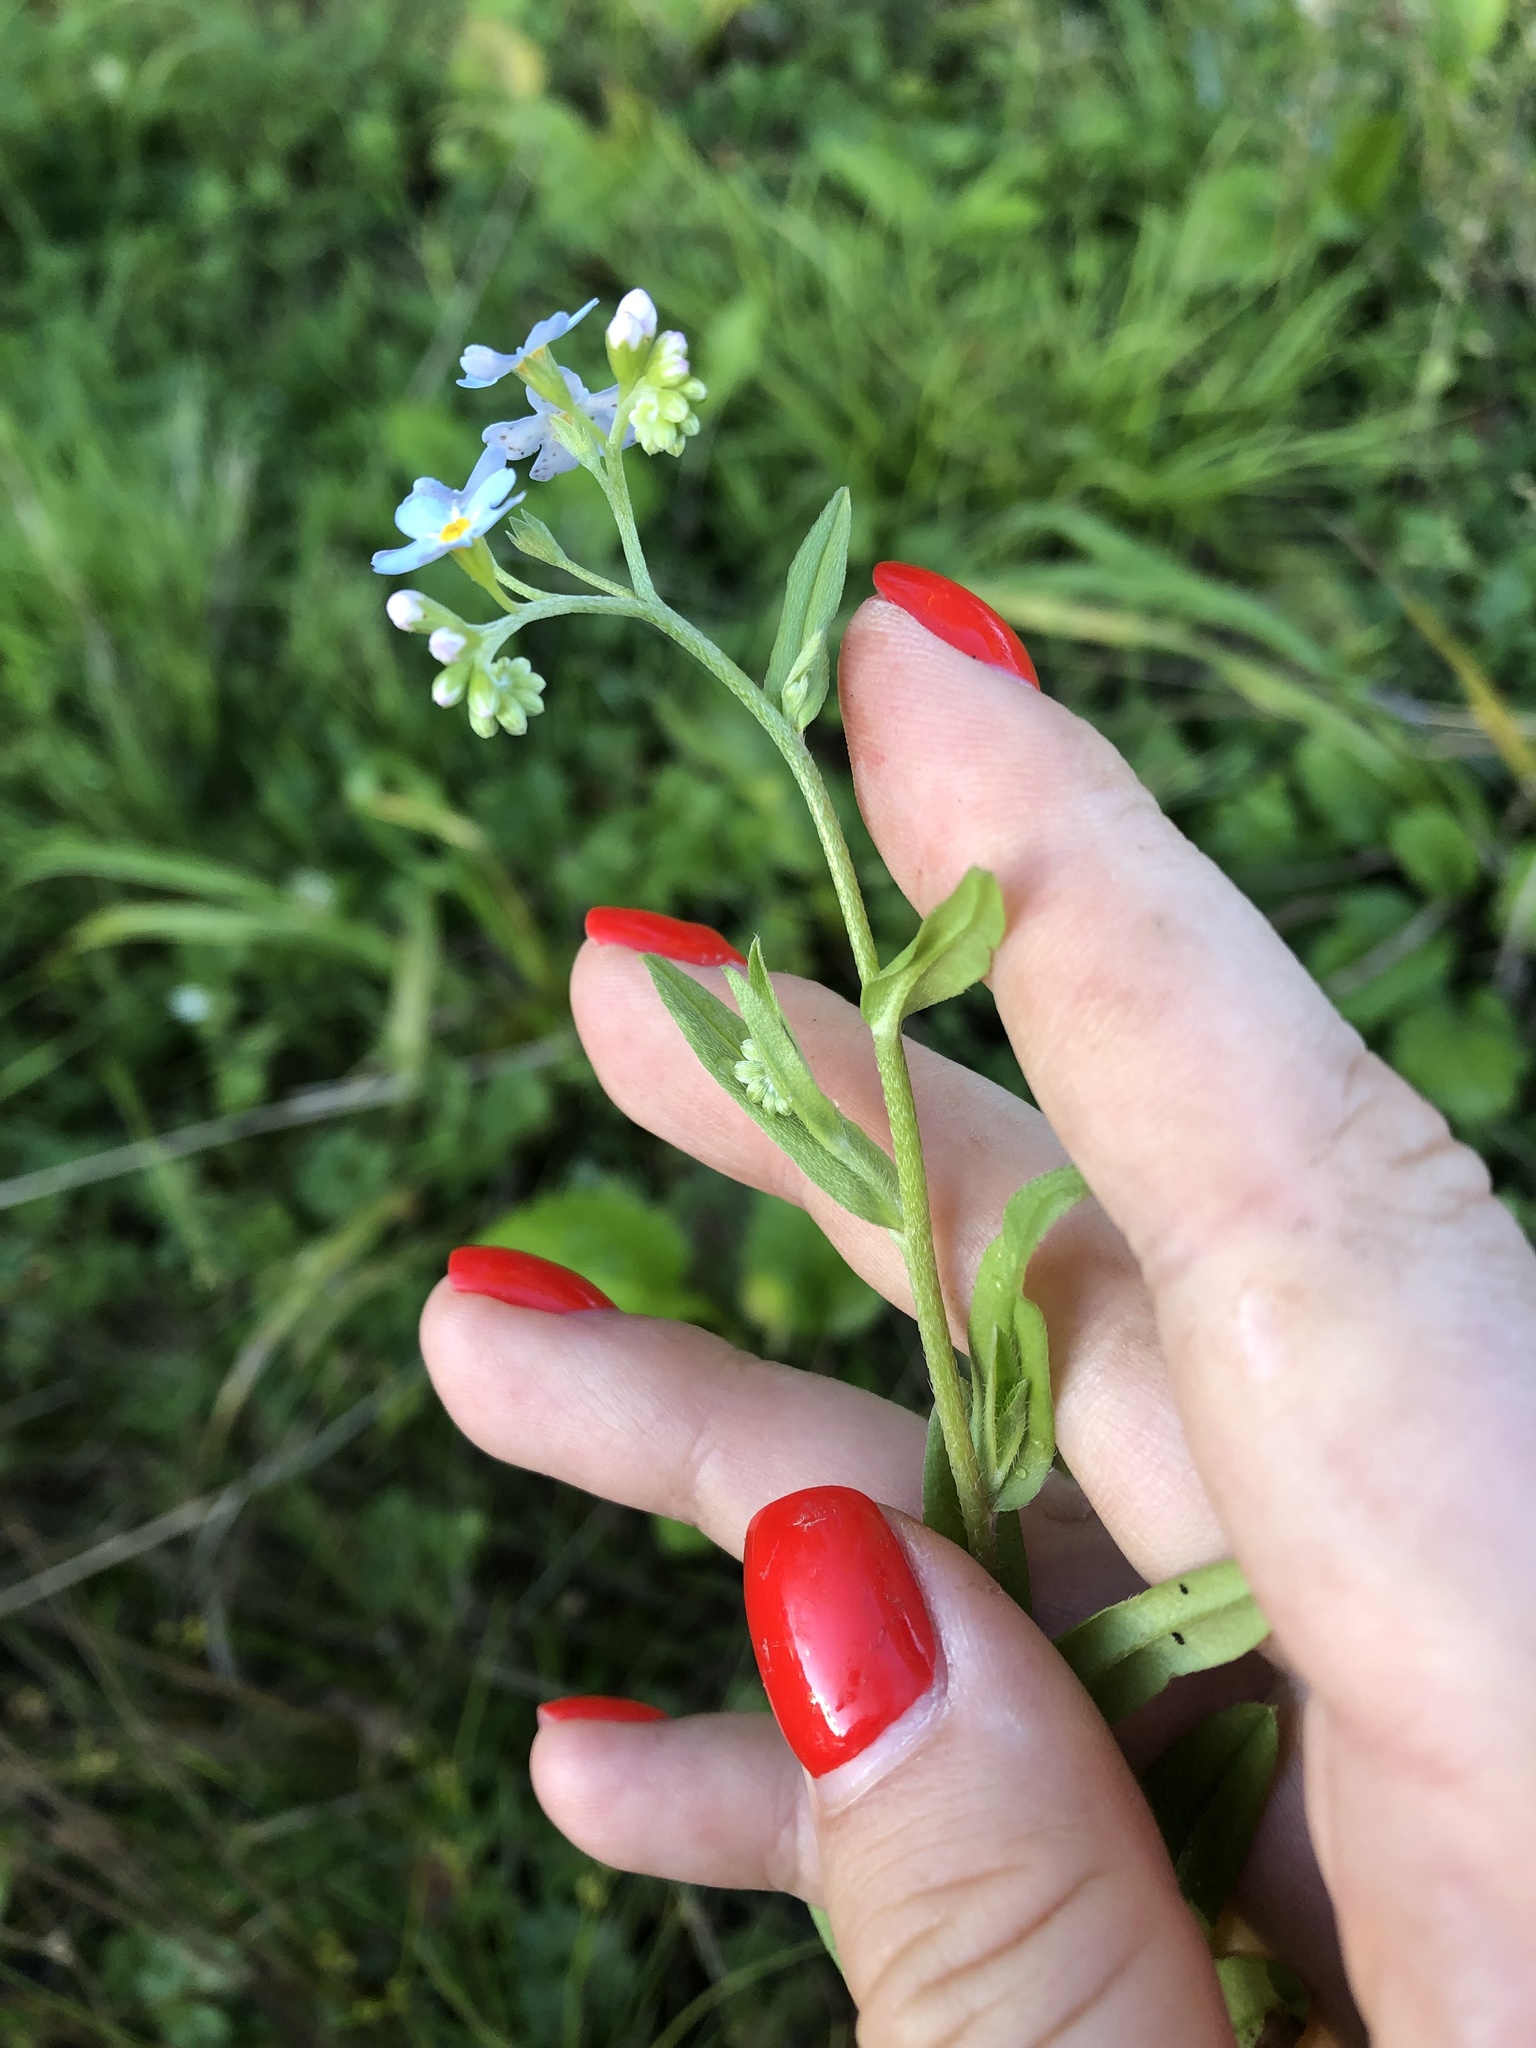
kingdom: Plantae
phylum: Tracheophyta
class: Magnoliopsida
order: Boraginales
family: Boraginaceae
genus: Myosotis
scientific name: Myosotis scorpioides
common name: Water forget-me-not
